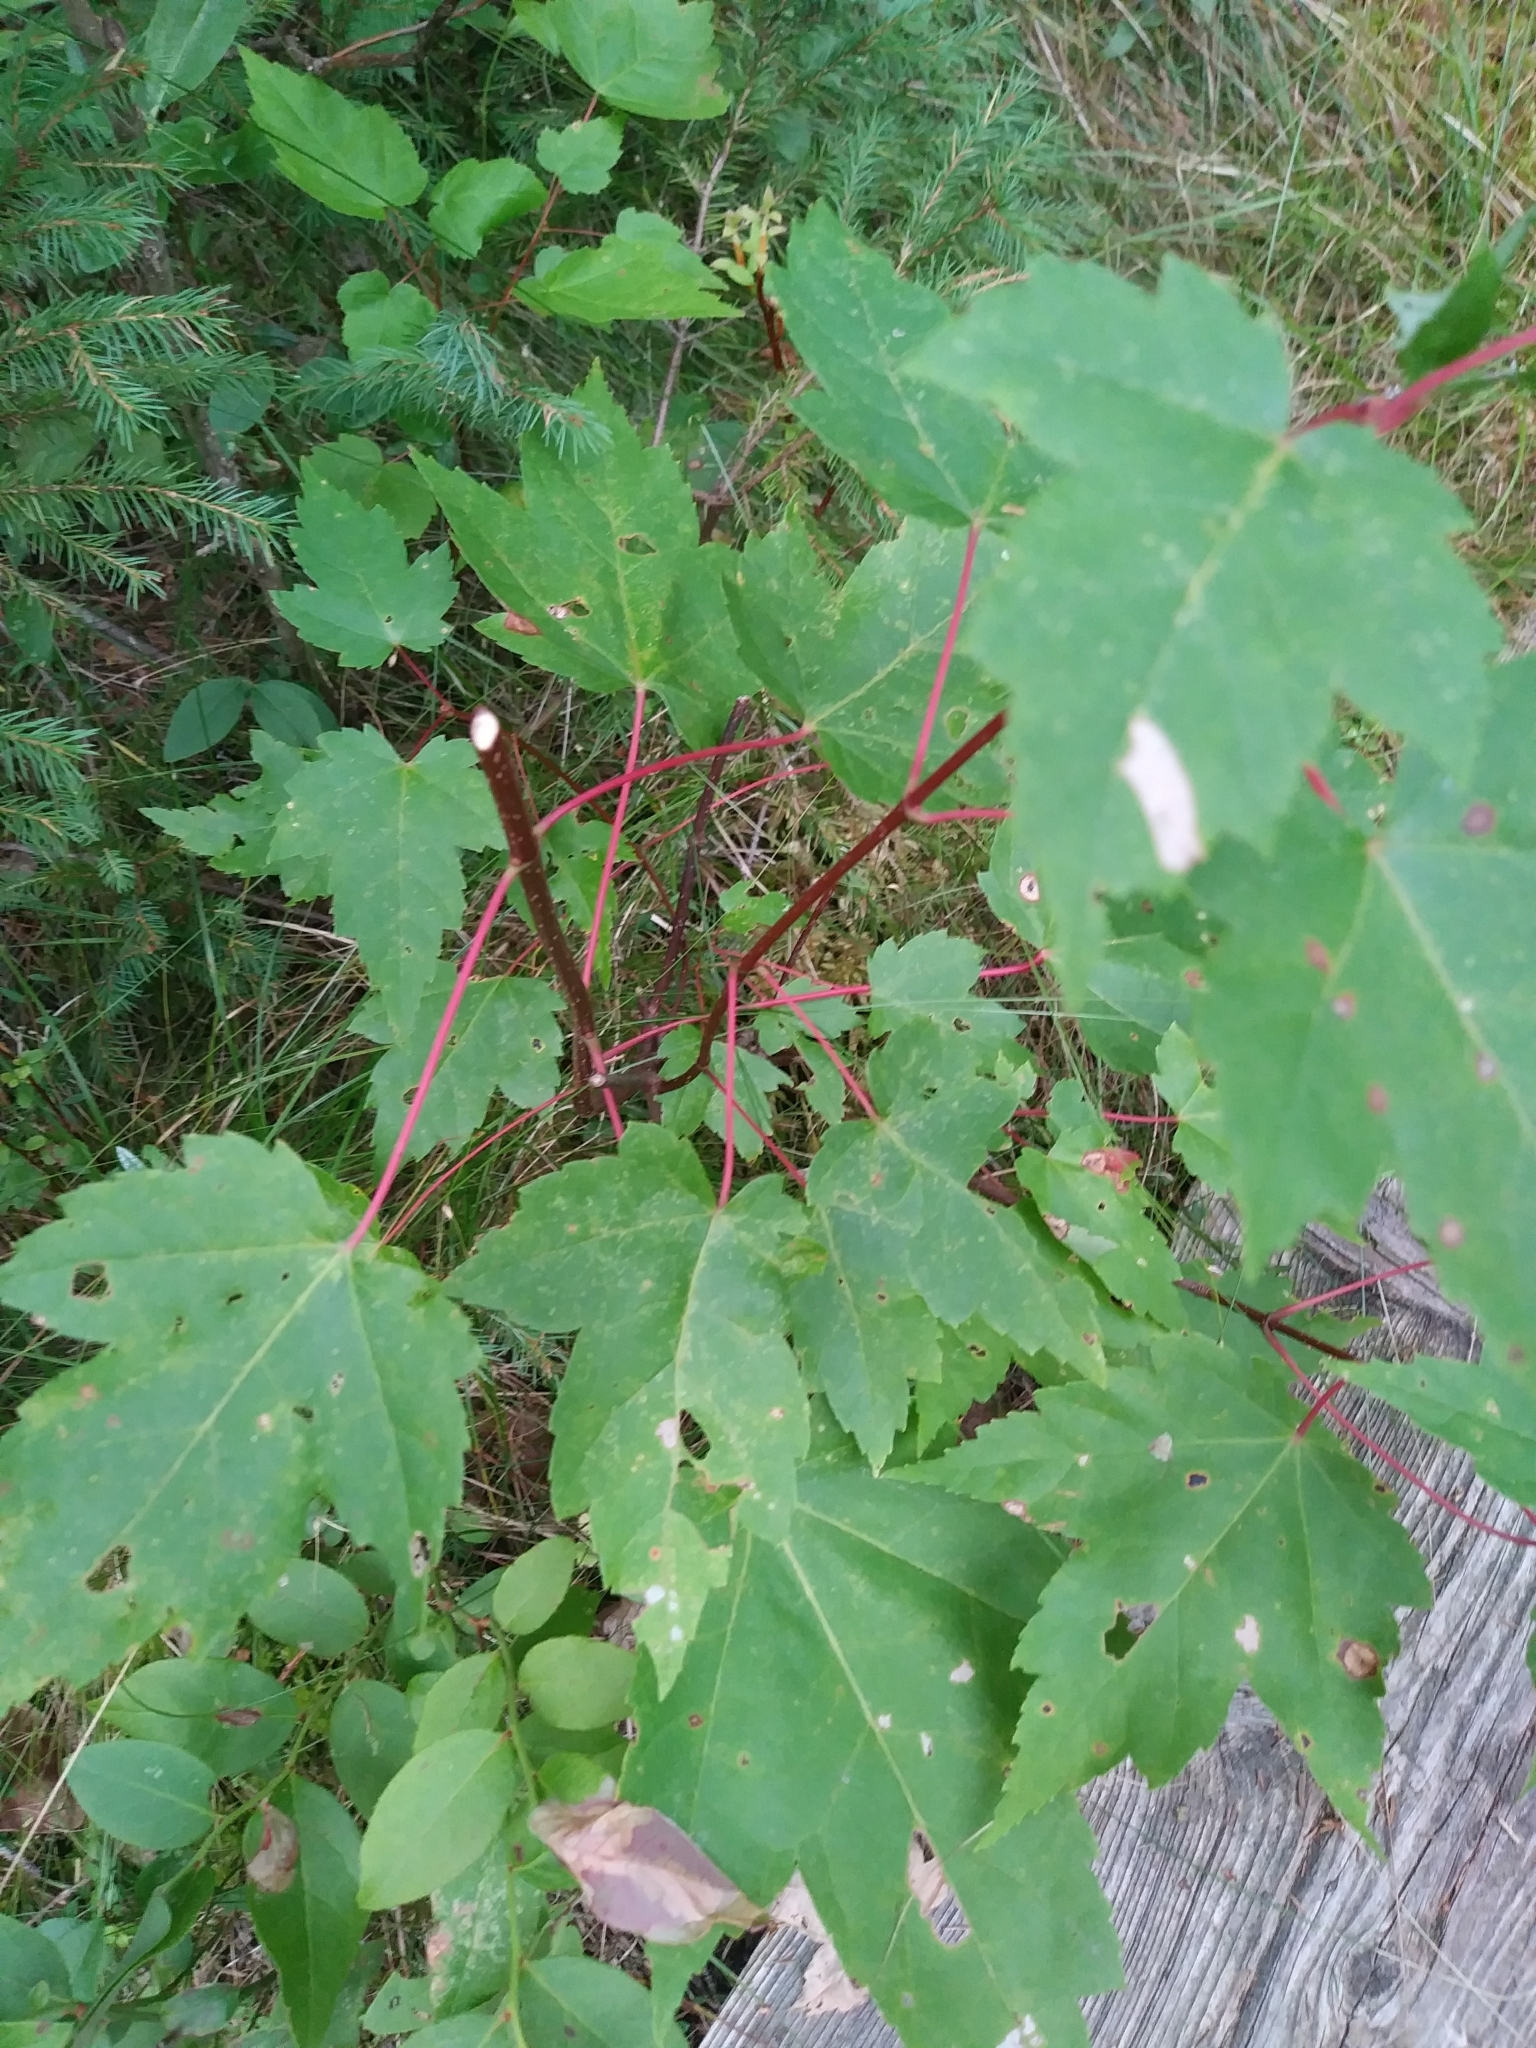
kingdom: Plantae
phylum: Tracheophyta
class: Magnoliopsida
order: Sapindales
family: Sapindaceae
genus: Acer
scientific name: Acer rubrum
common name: Red maple
